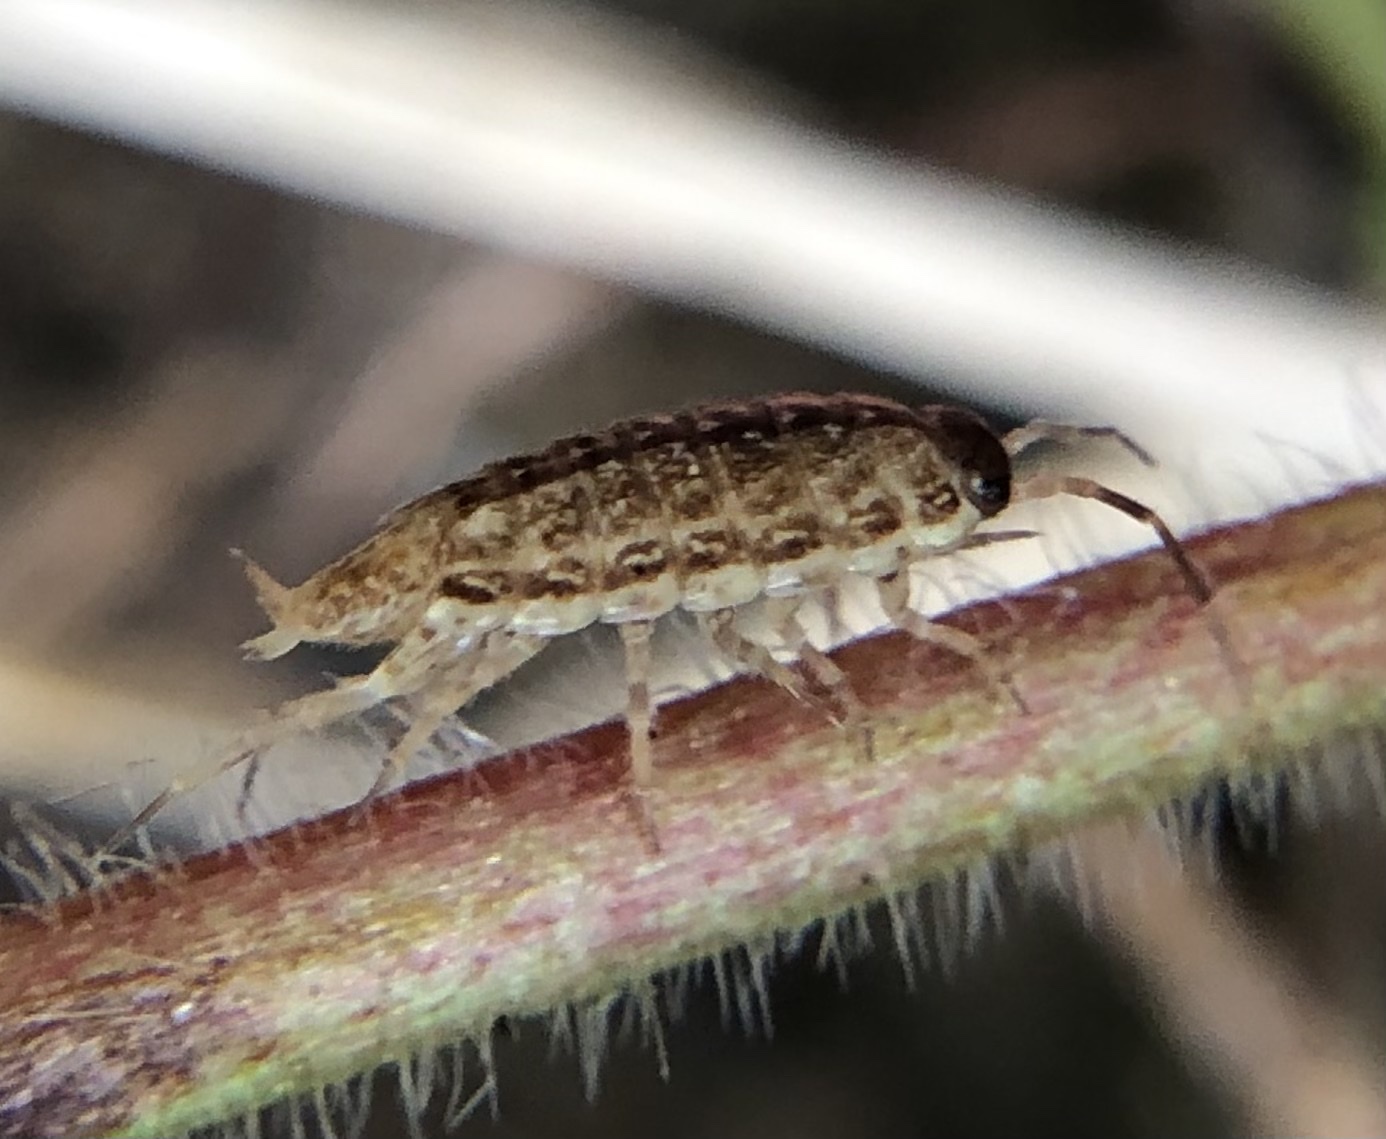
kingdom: Animalia
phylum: Arthropoda
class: Malacostraca
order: Isopoda
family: Philosciidae
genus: Philoscia
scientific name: Philoscia muscorum
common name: Common striped woodlouse
